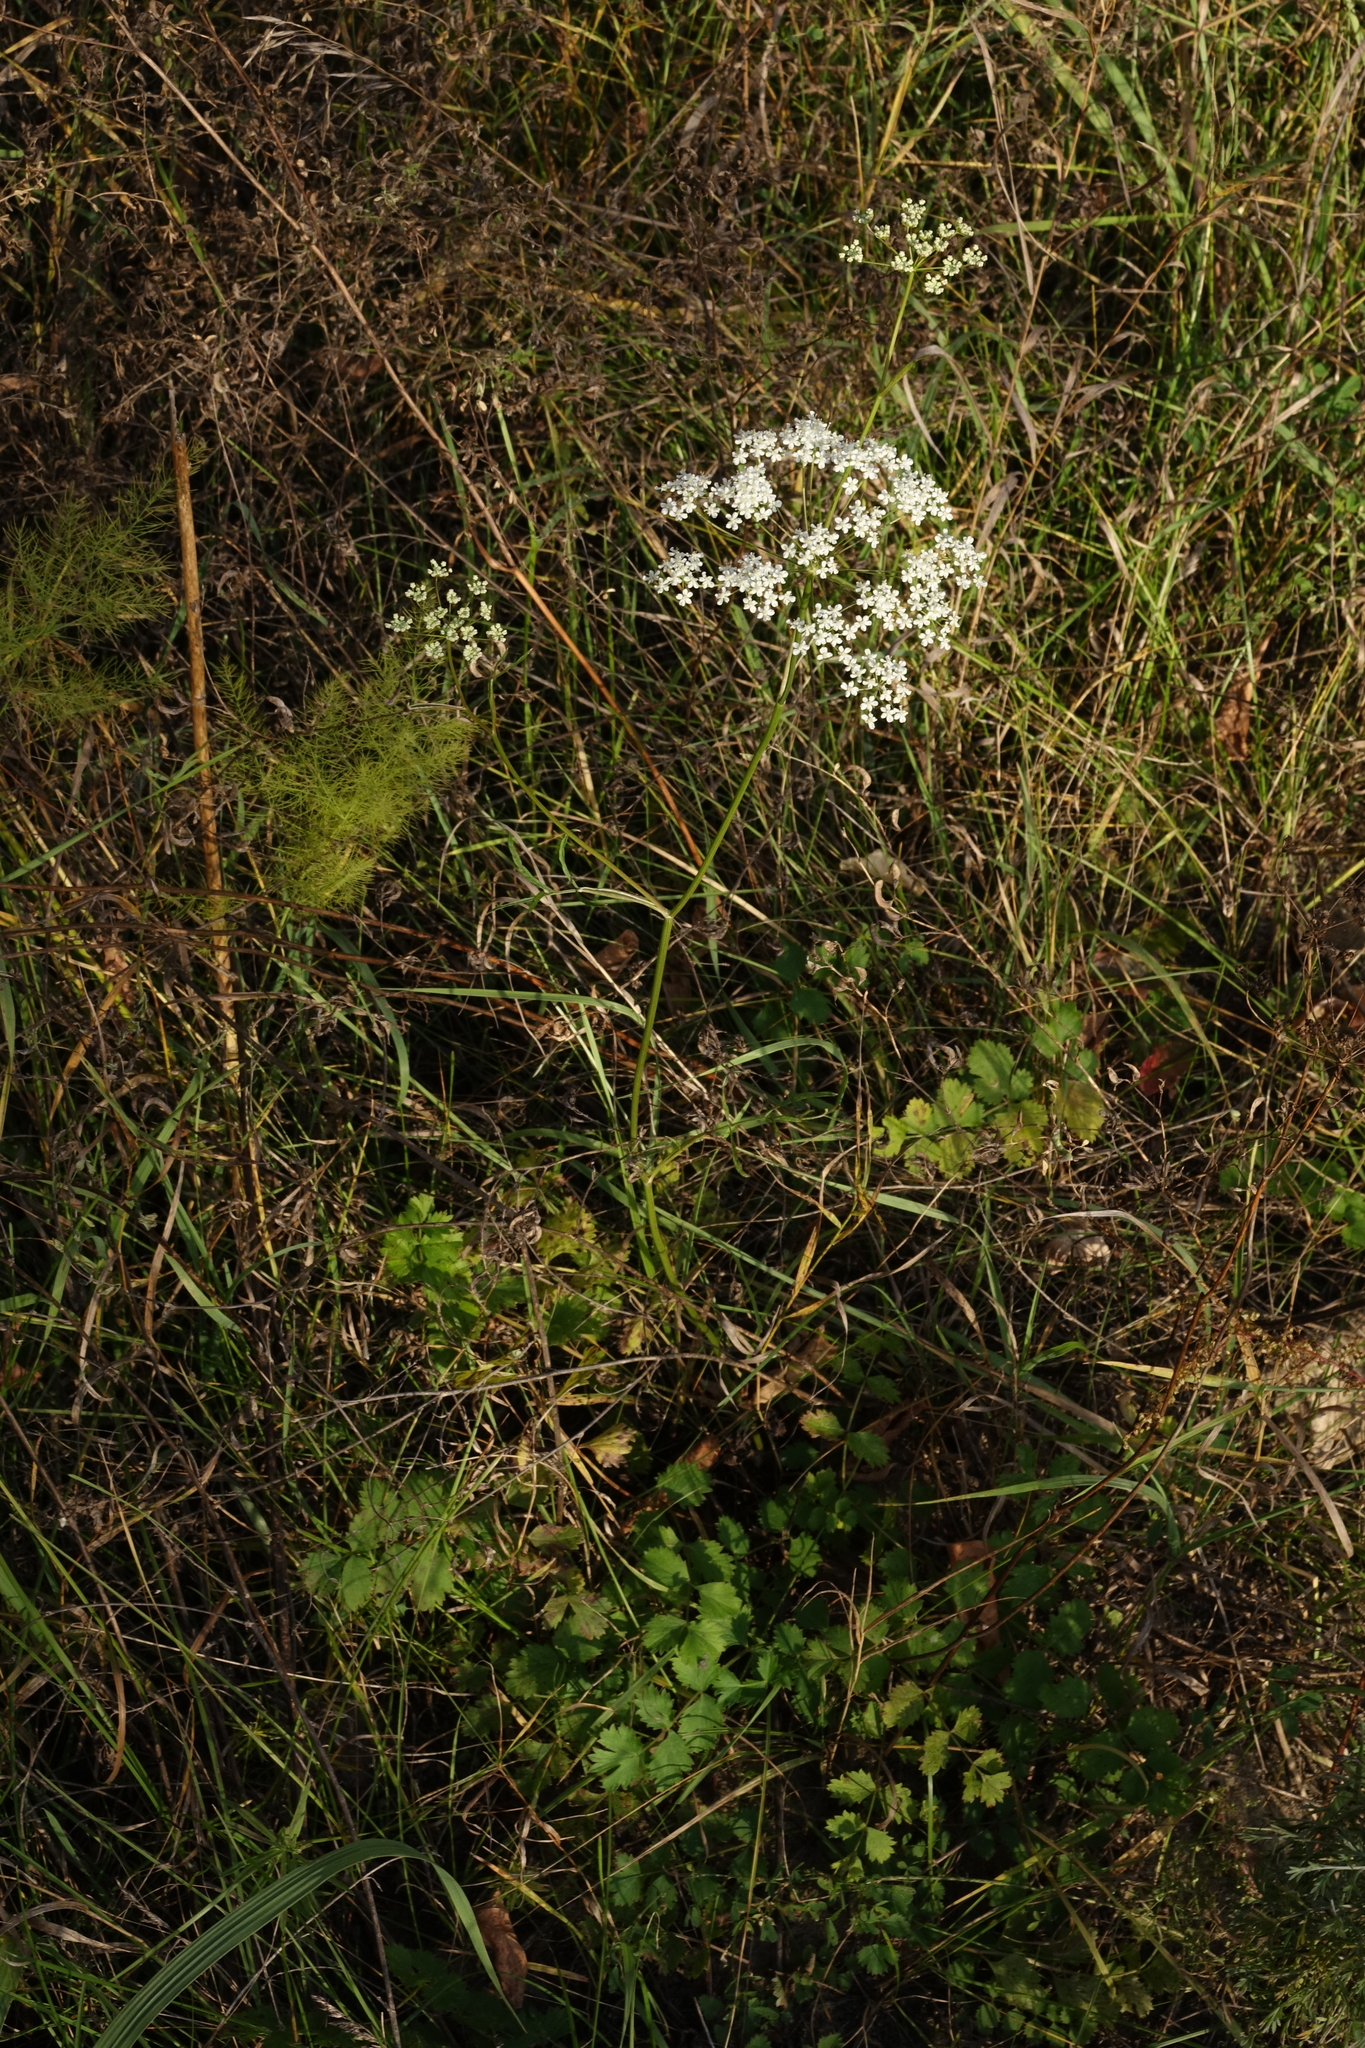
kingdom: Plantae
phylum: Tracheophyta
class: Magnoliopsida
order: Apiales
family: Apiaceae
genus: Pimpinella
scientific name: Pimpinella saxifraga
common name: Burnet-saxifrage
